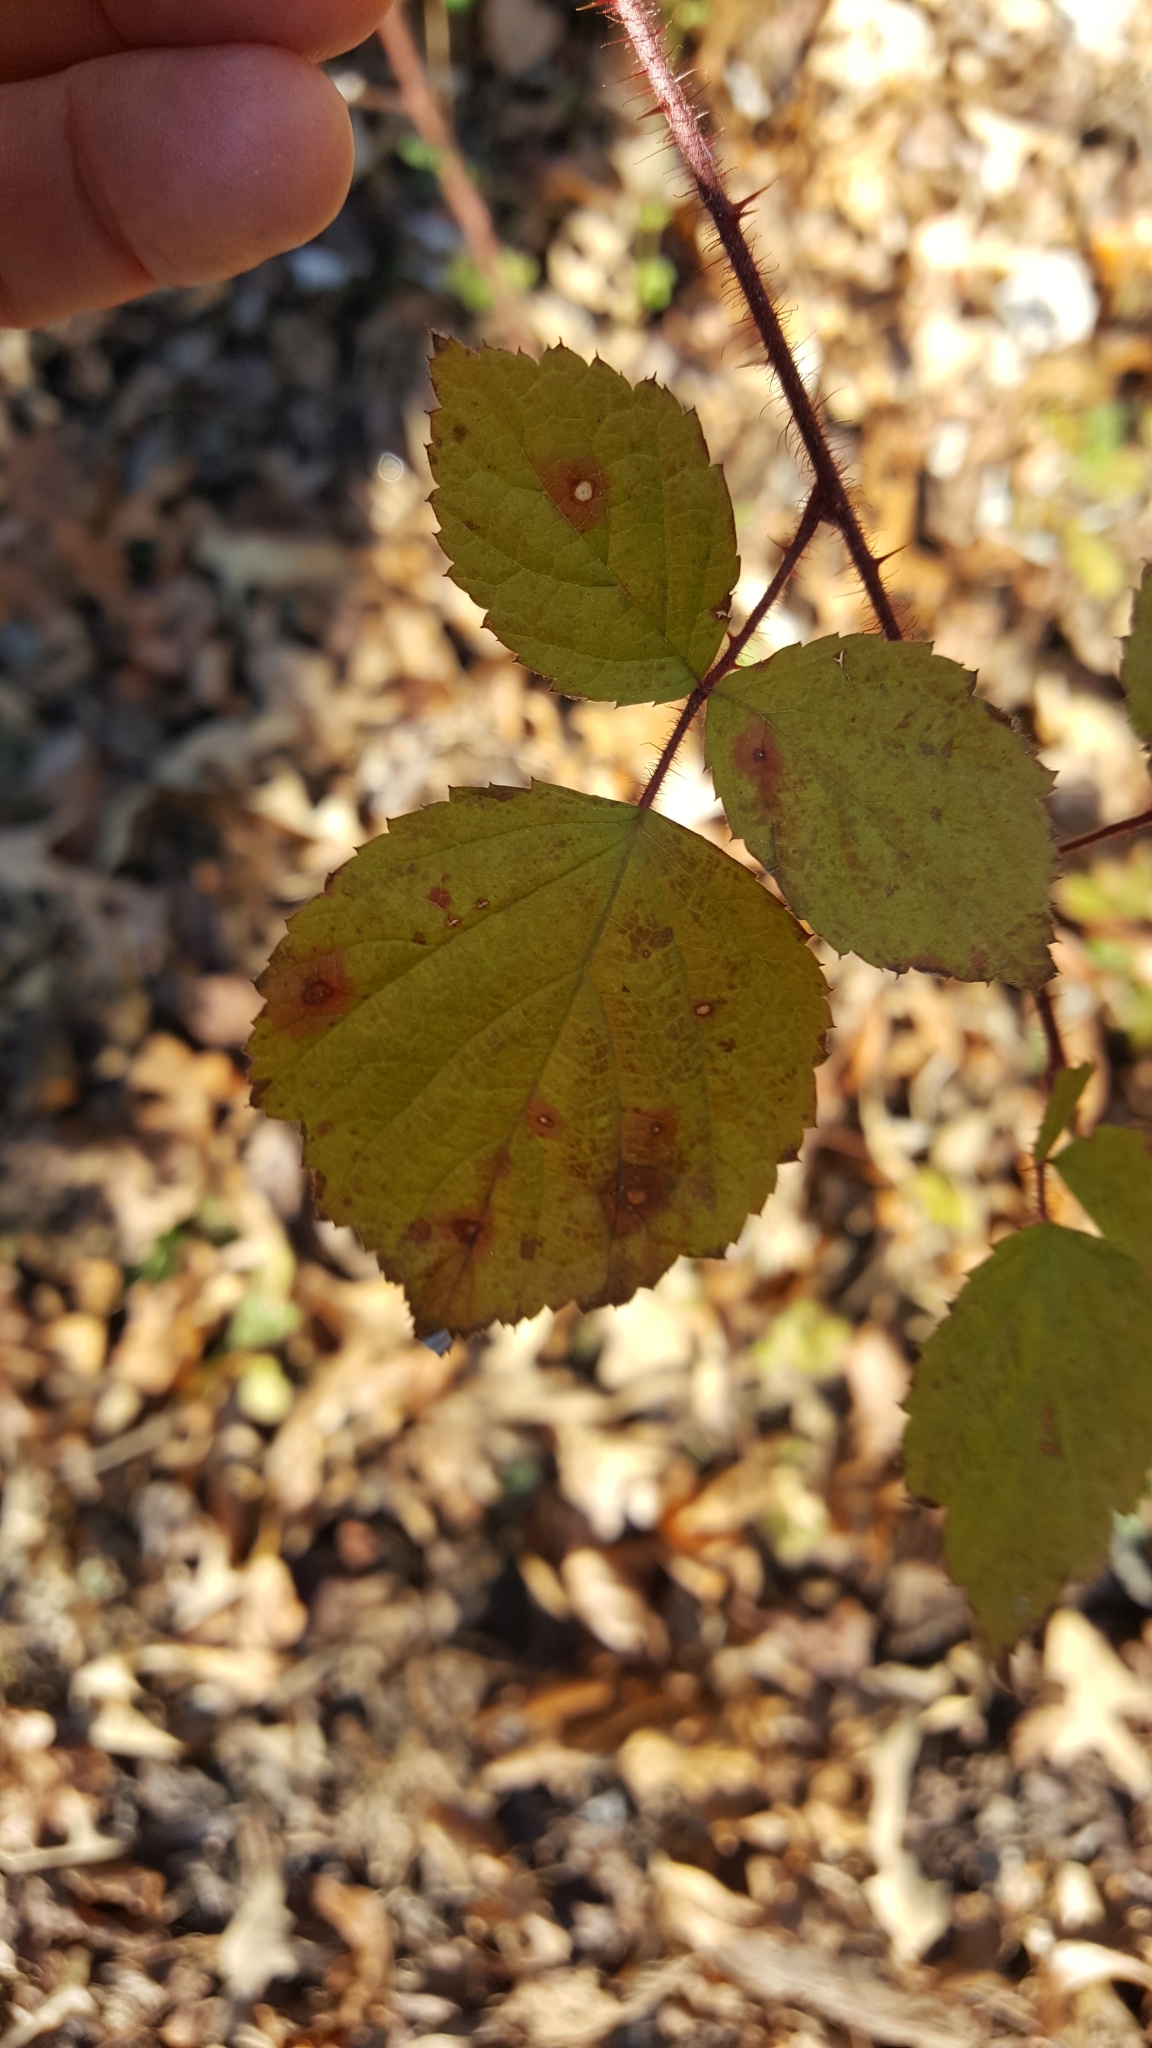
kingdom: Plantae
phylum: Tracheophyta
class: Magnoliopsida
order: Rosales
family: Rosaceae
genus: Rubus
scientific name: Rubus phoenicolasius
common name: Japanese wineberry
